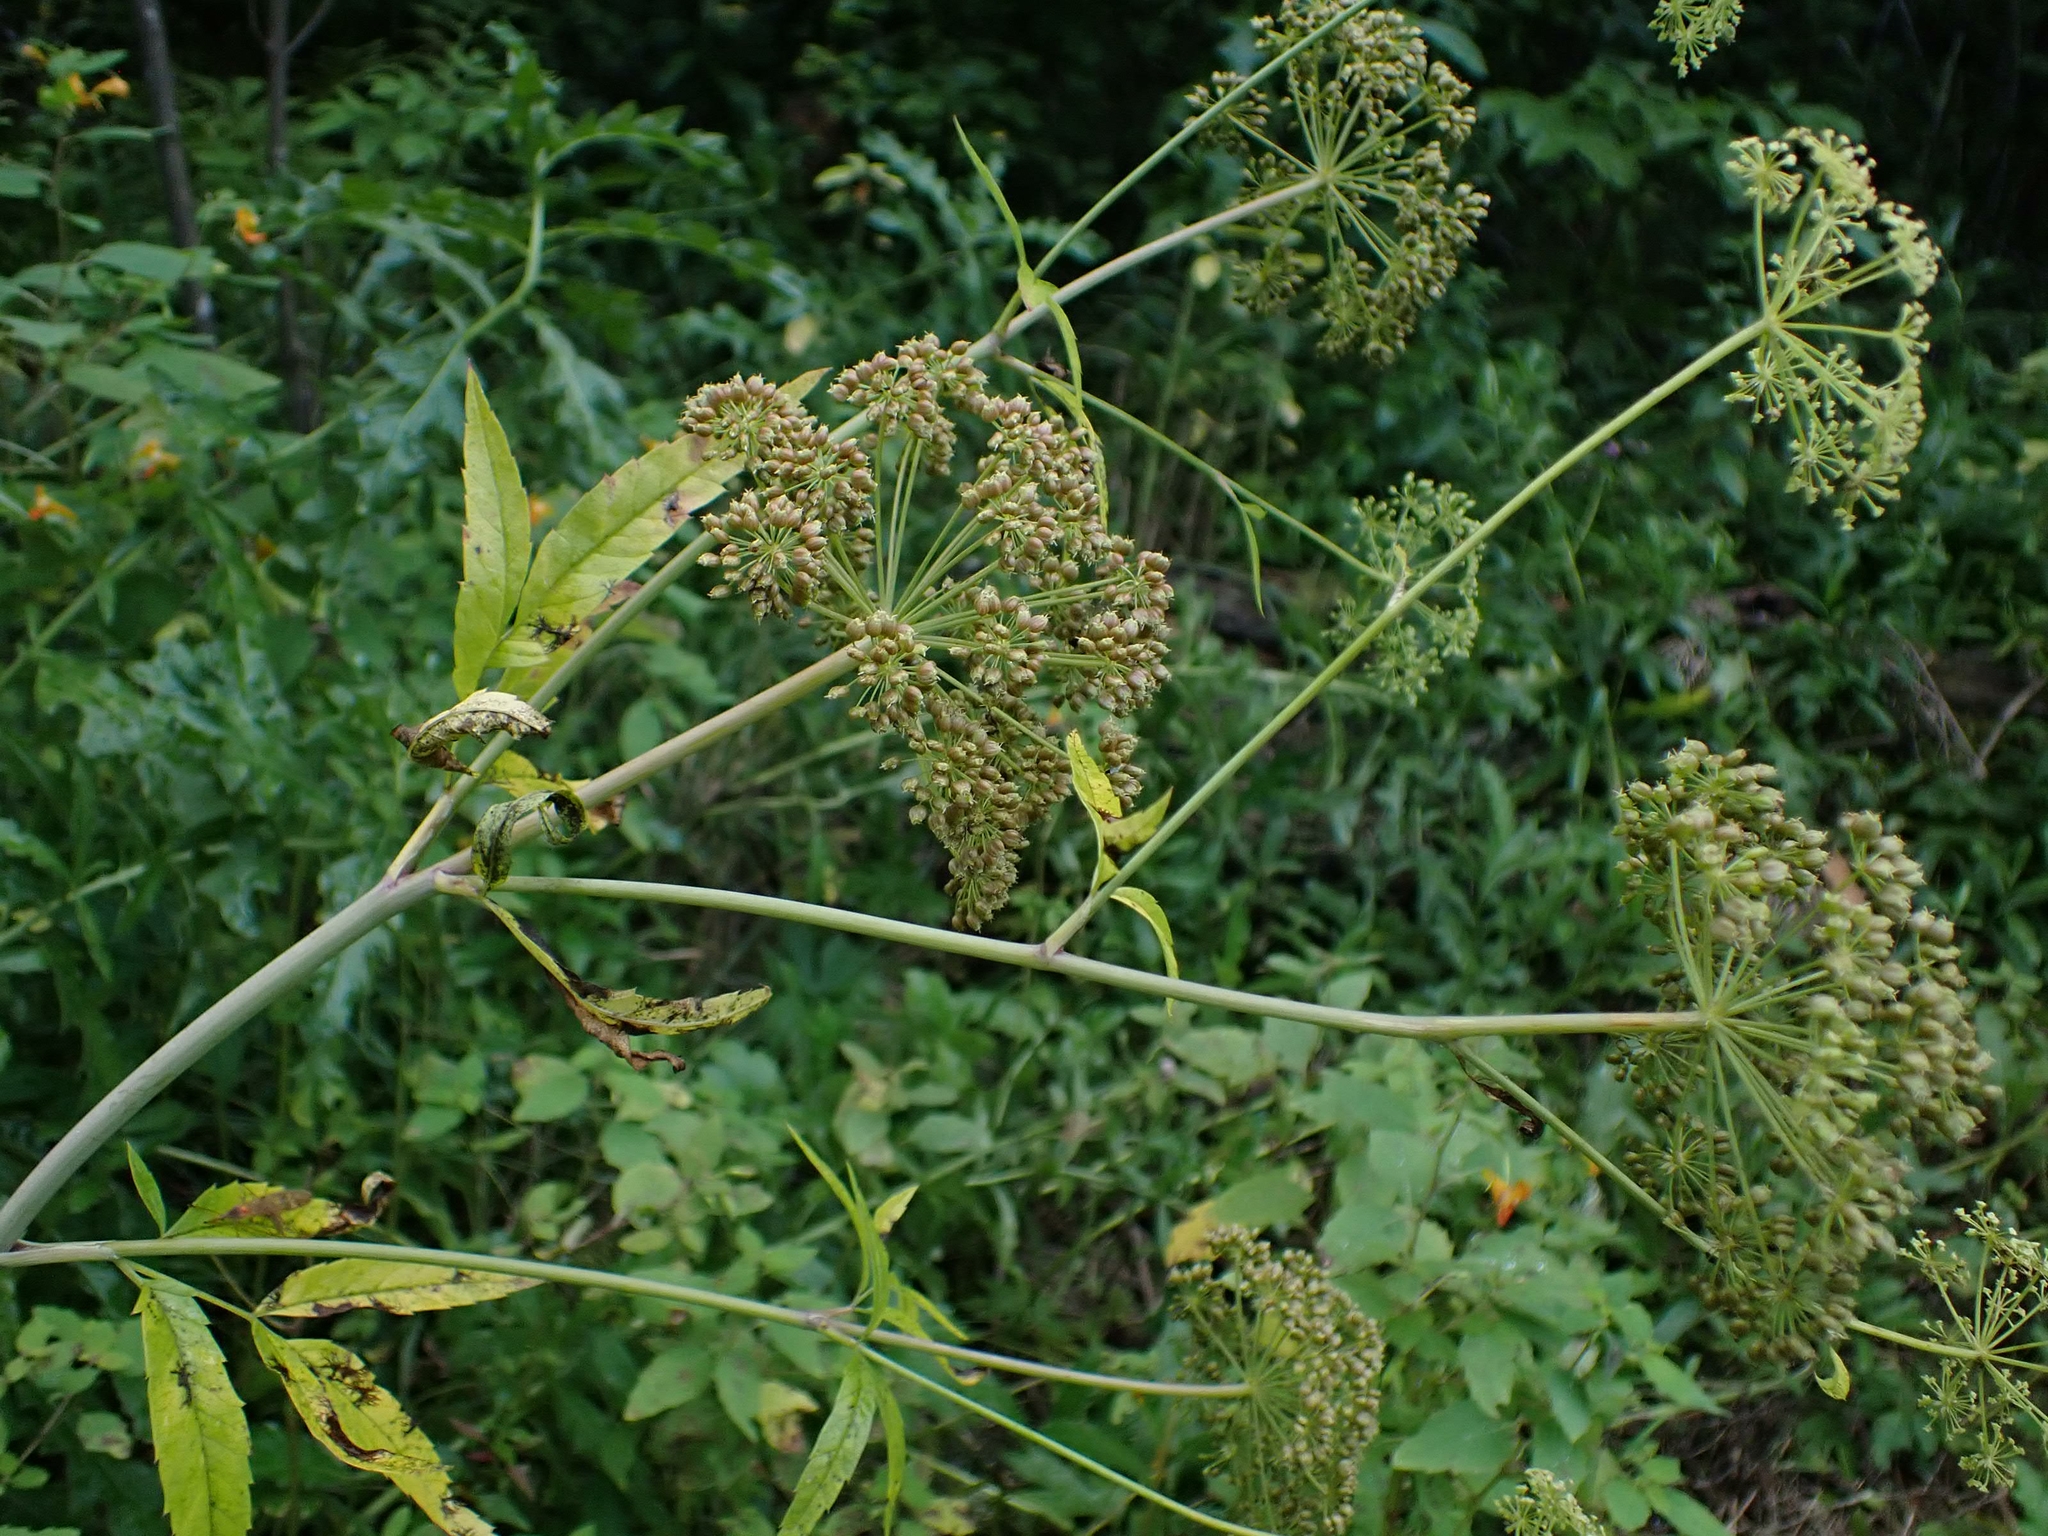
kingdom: Plantae
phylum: Tracheophyta
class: Magnoliopsida
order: Apiales
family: Apiaceae
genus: Cicuta
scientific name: Cicuta maculata
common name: Spotted cowbane
